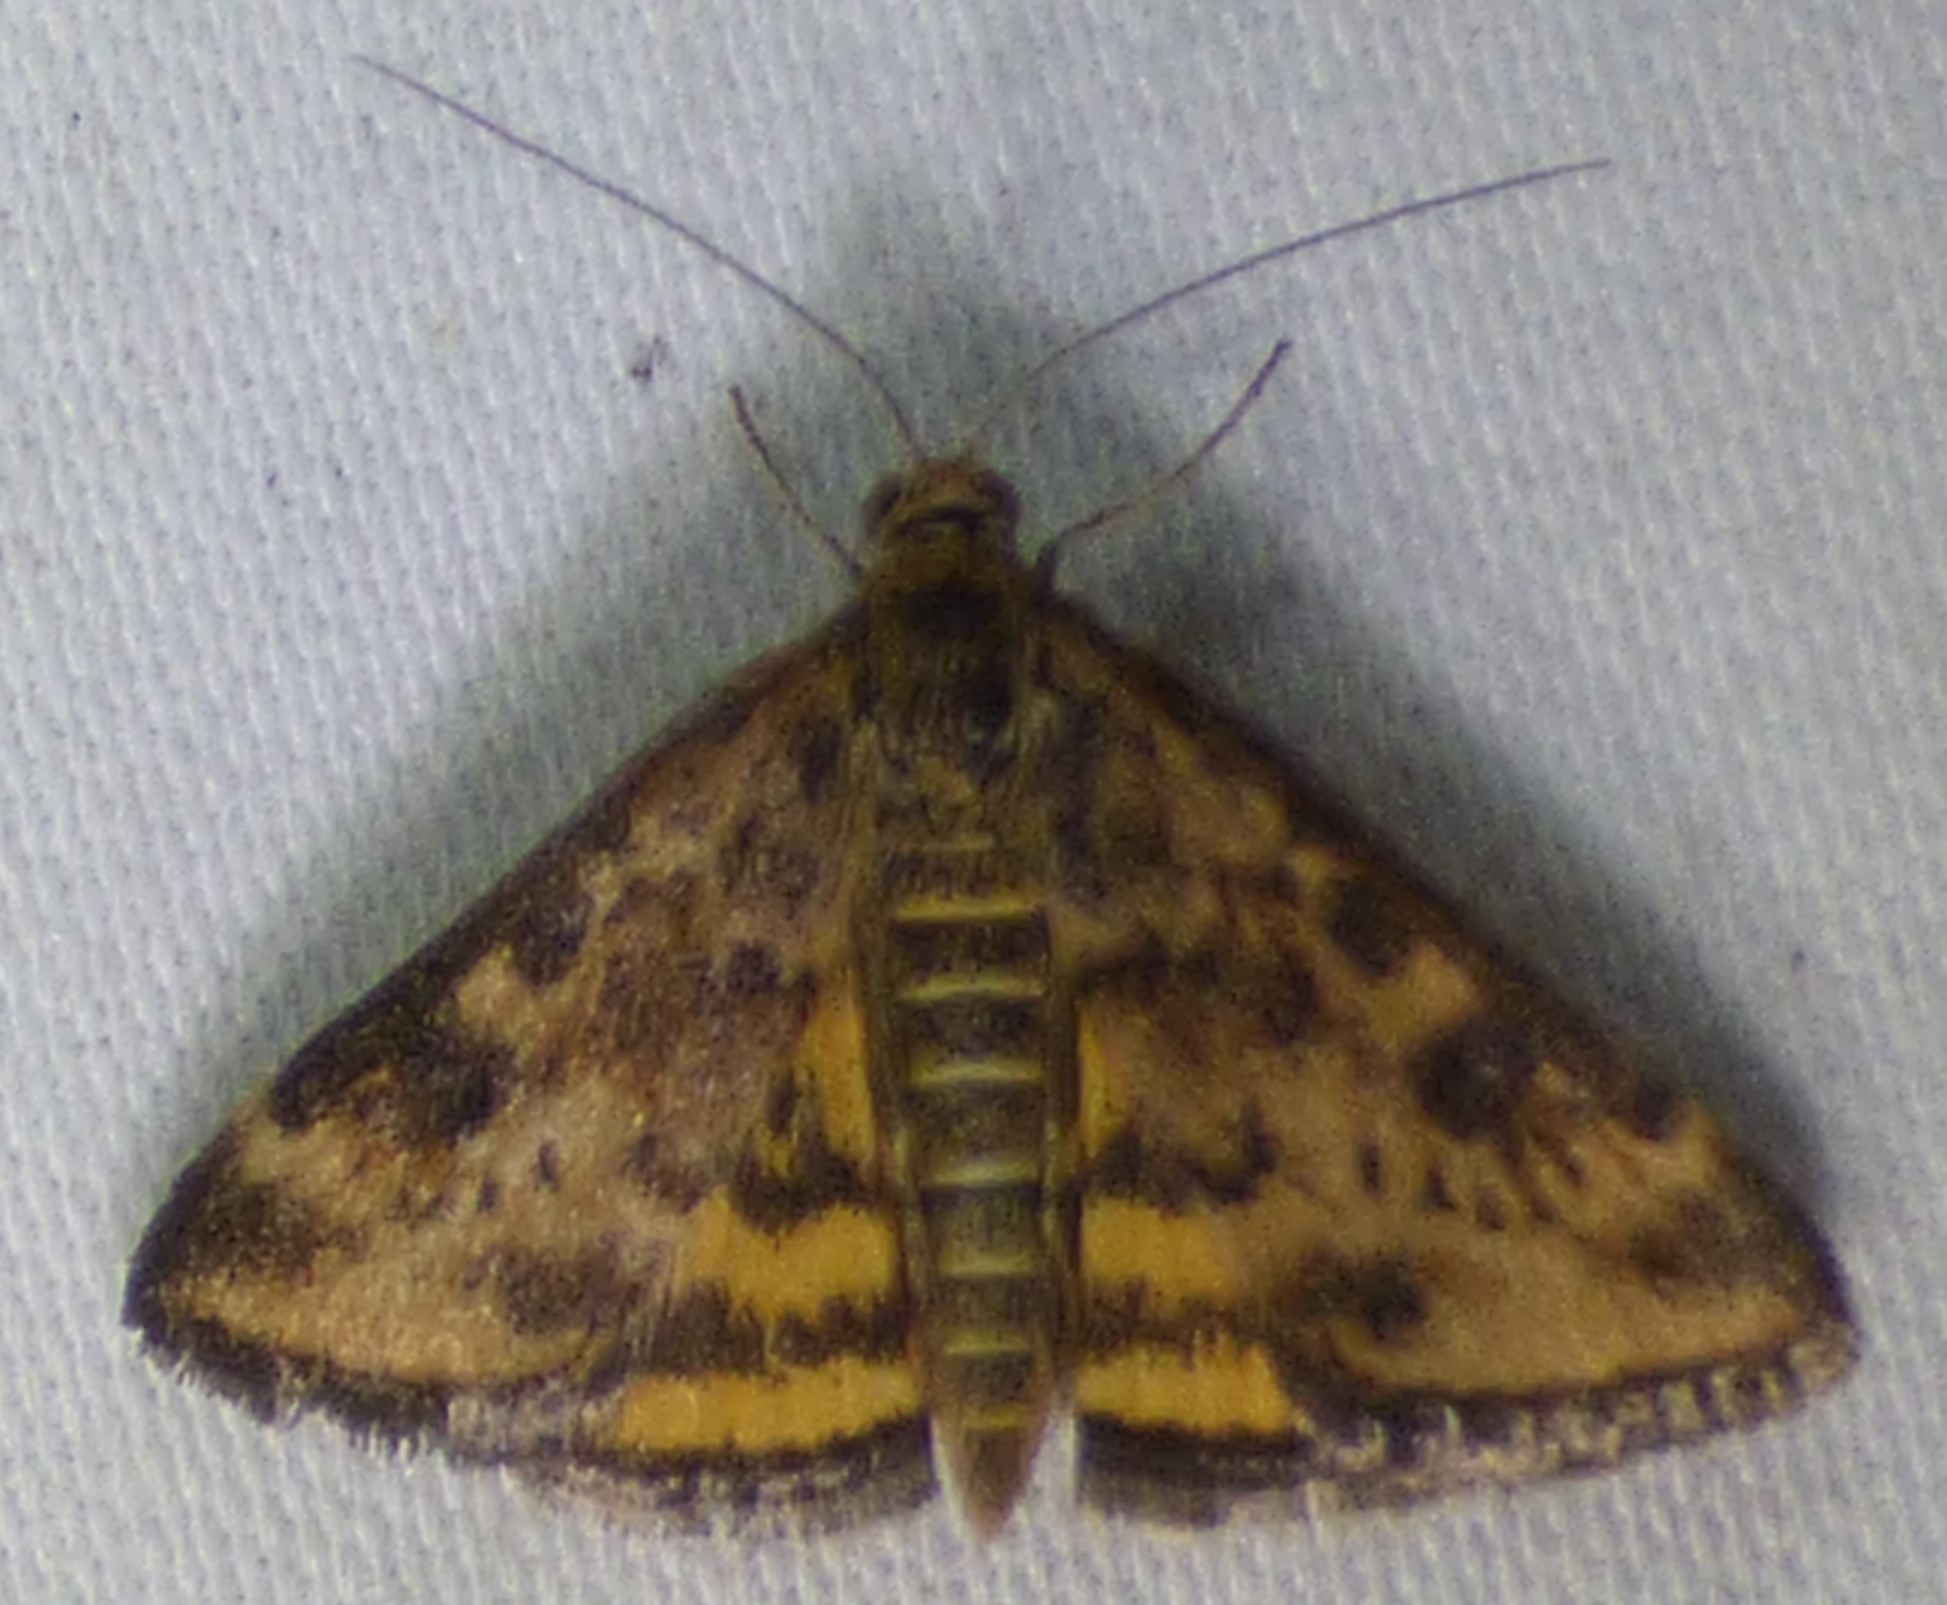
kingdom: Animalia
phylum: Arthropoda
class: Insecta
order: Lepidoptera
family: Crambidae
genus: Pyrausta
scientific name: Pyrausta subsequalis
